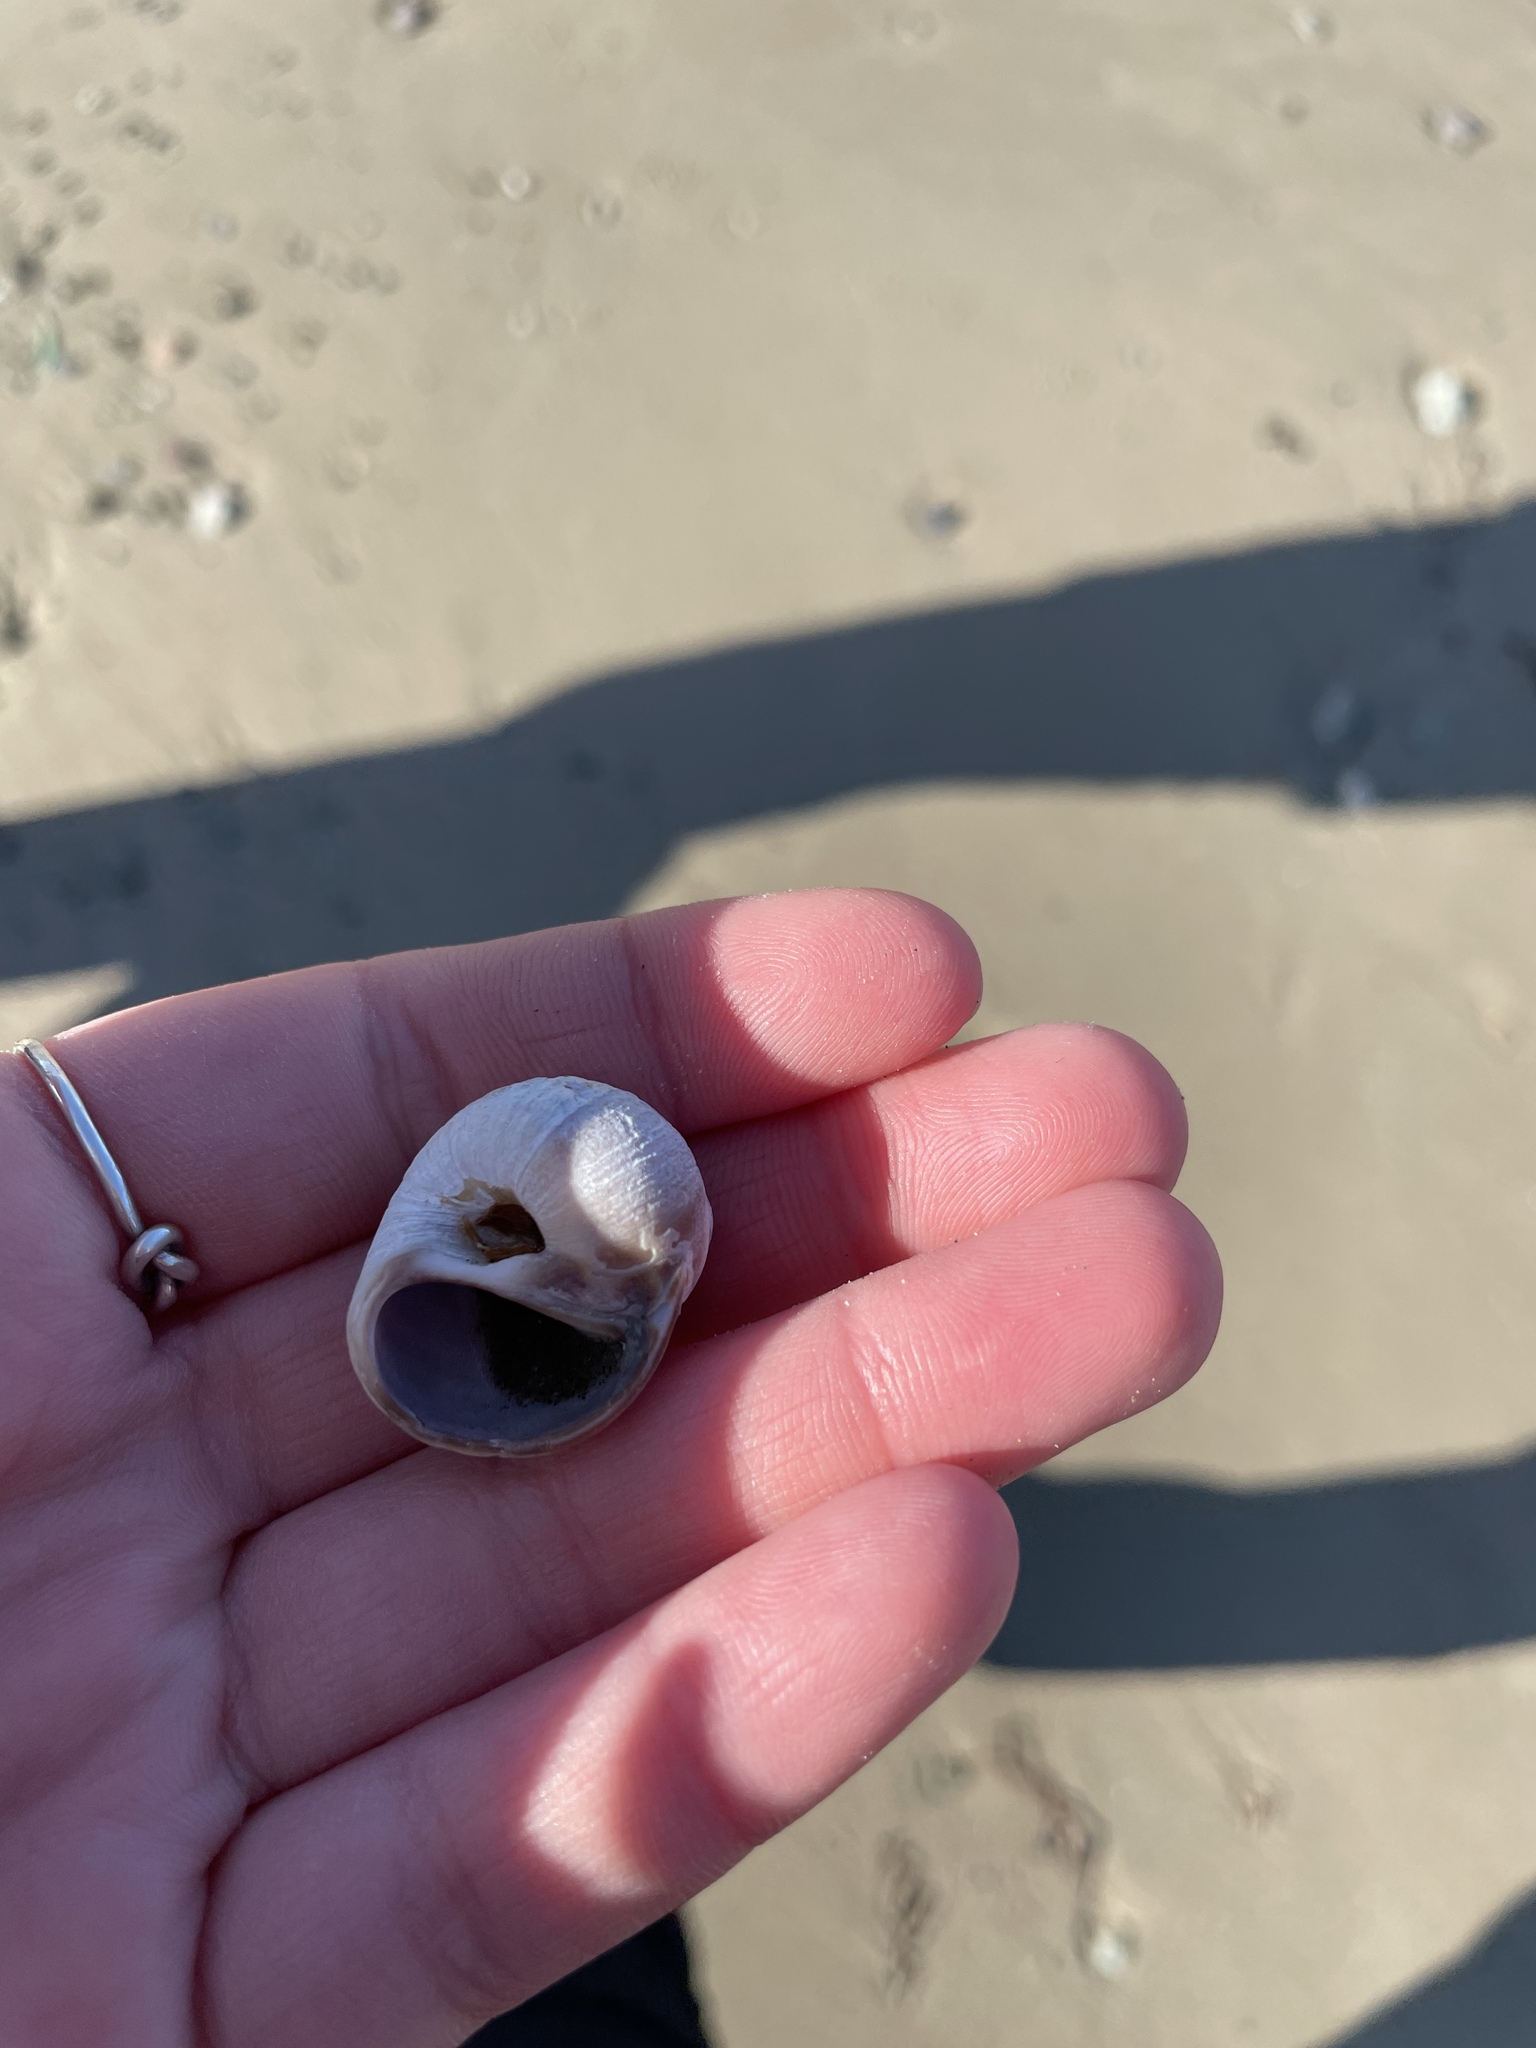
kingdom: Animalia
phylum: Mollusca
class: Gastropoda
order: Littorinimorpha
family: Naticidae
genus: Euspira
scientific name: Euspira heros
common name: Common northern moonsnail
